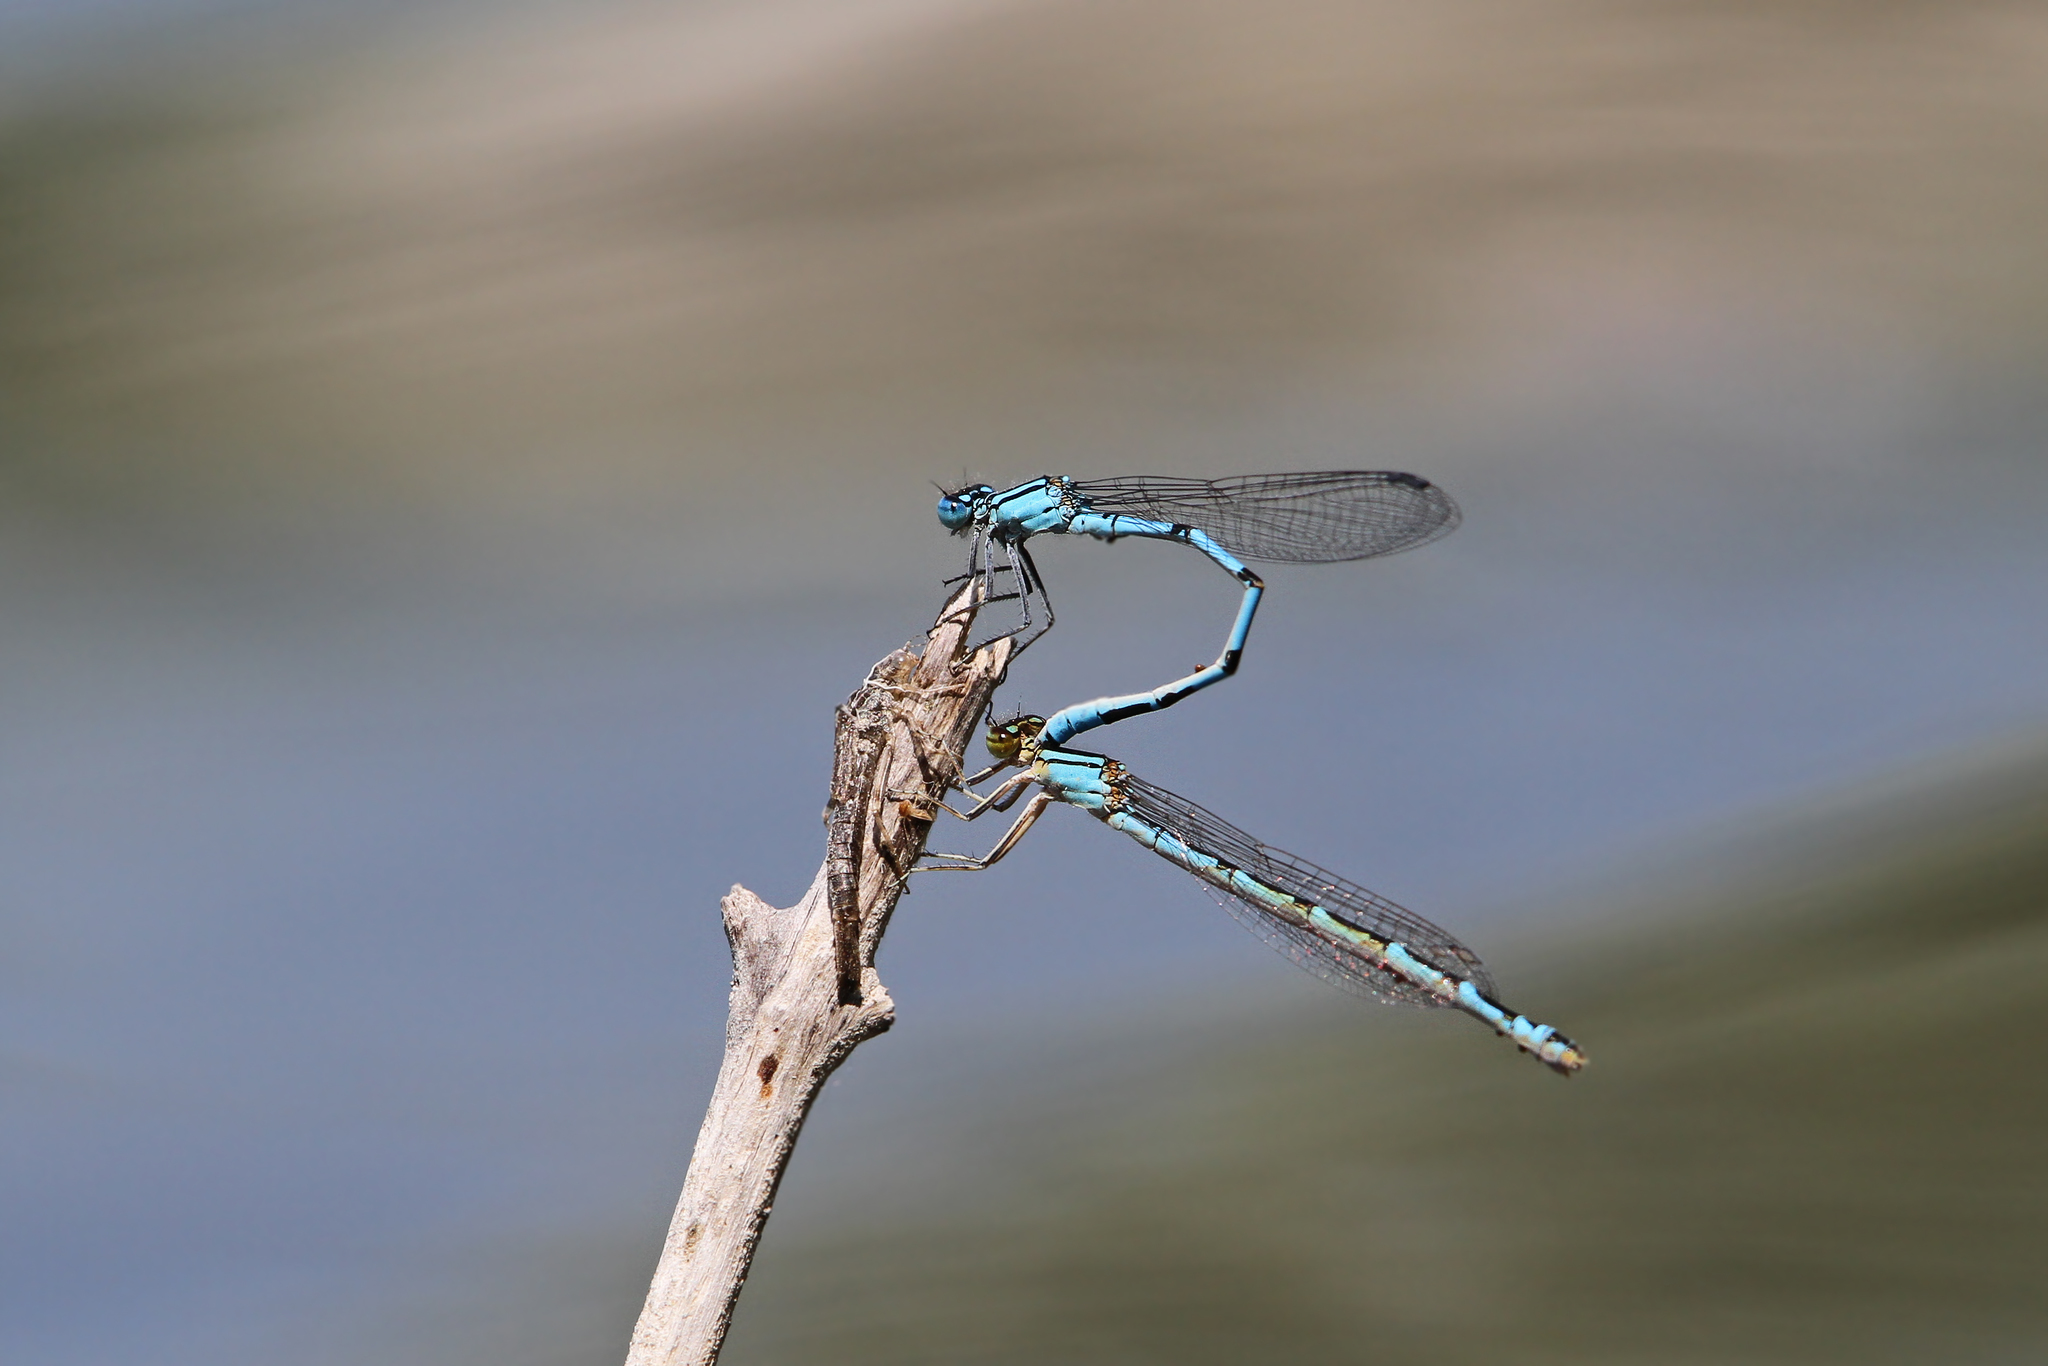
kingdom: Animalia
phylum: Arthropoda
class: Insecta
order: Odonata
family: Coenagrionidae
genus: Enallagma
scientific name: Enallagma cyathigerum
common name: Common blue damselfly
